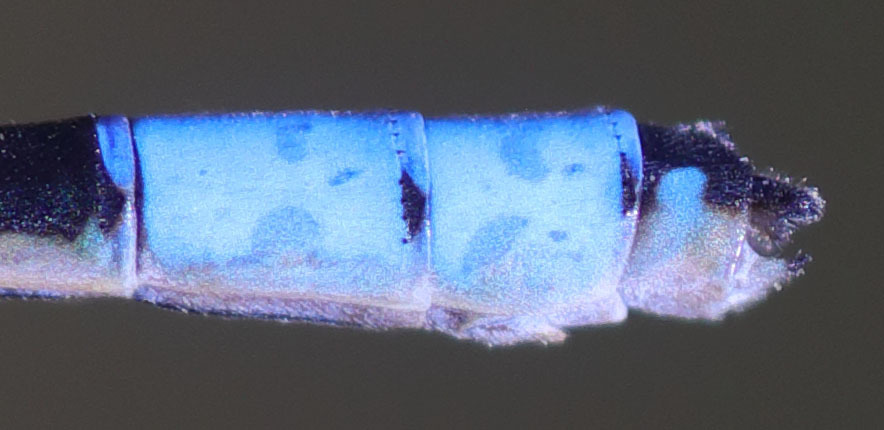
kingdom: Animalia
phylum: Arthropoda
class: Insecta
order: Odonata
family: Coenagrionidae
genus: Enallagma
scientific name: Enallagma praevarum
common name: Arroyo bluet
